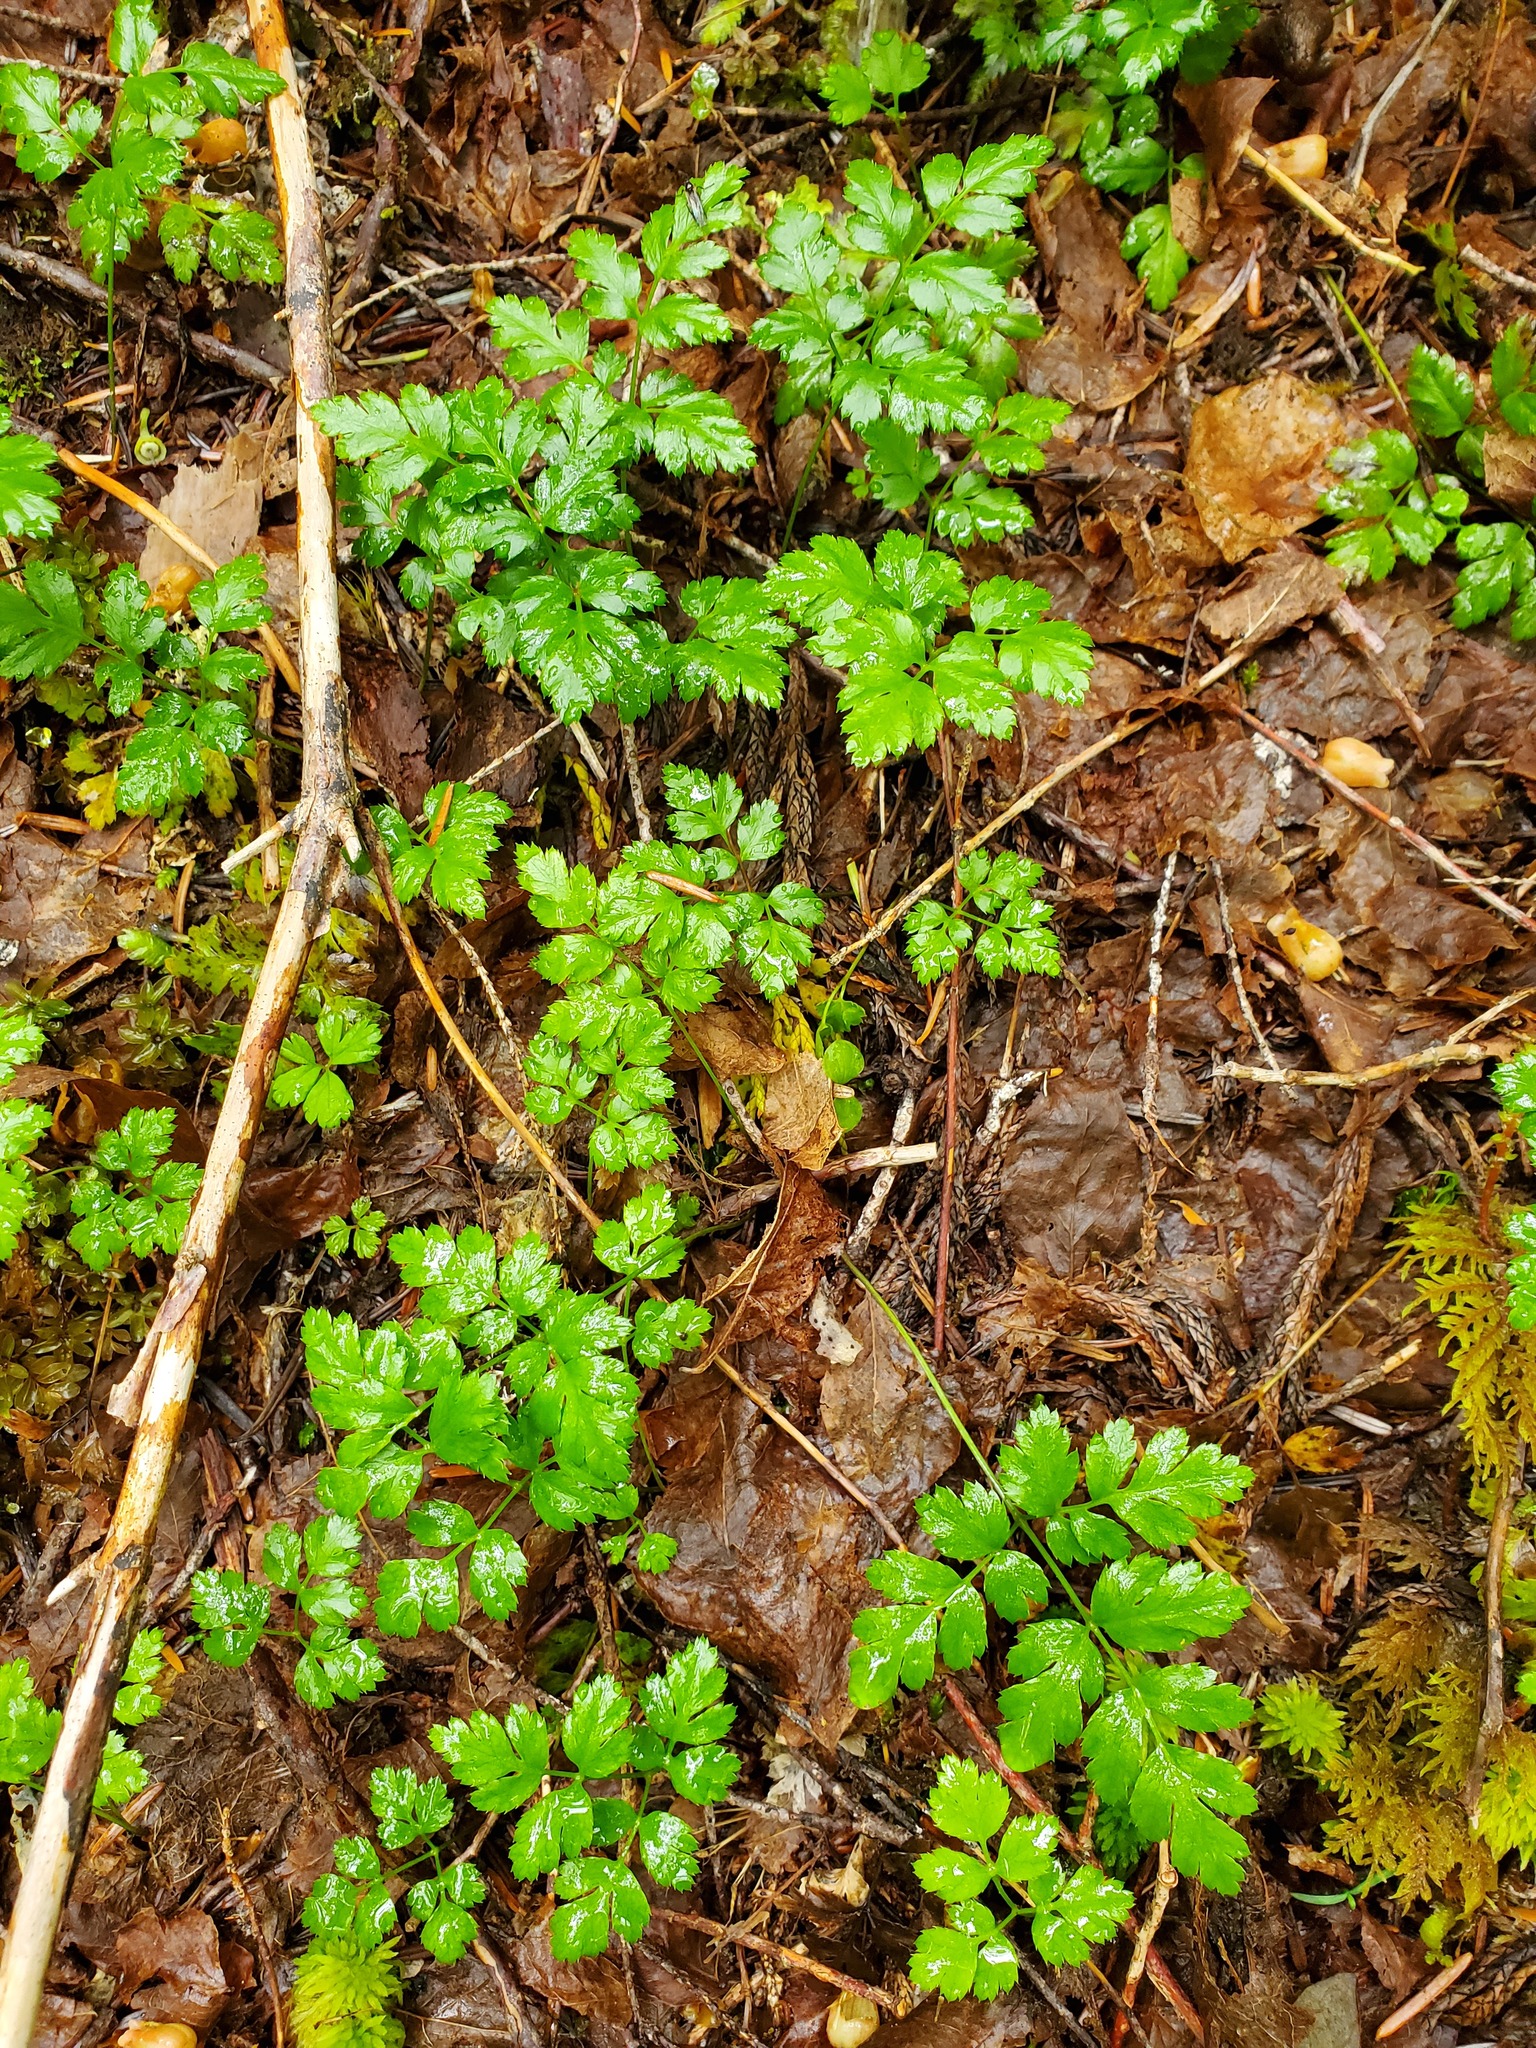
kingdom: Plantae
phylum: Tracheophyta
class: Magnoliopsida
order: Ranunculales
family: Ranunculaceae
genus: Coptis
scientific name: Coptis aspleniifolia
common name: Fern-leaved goldthread
